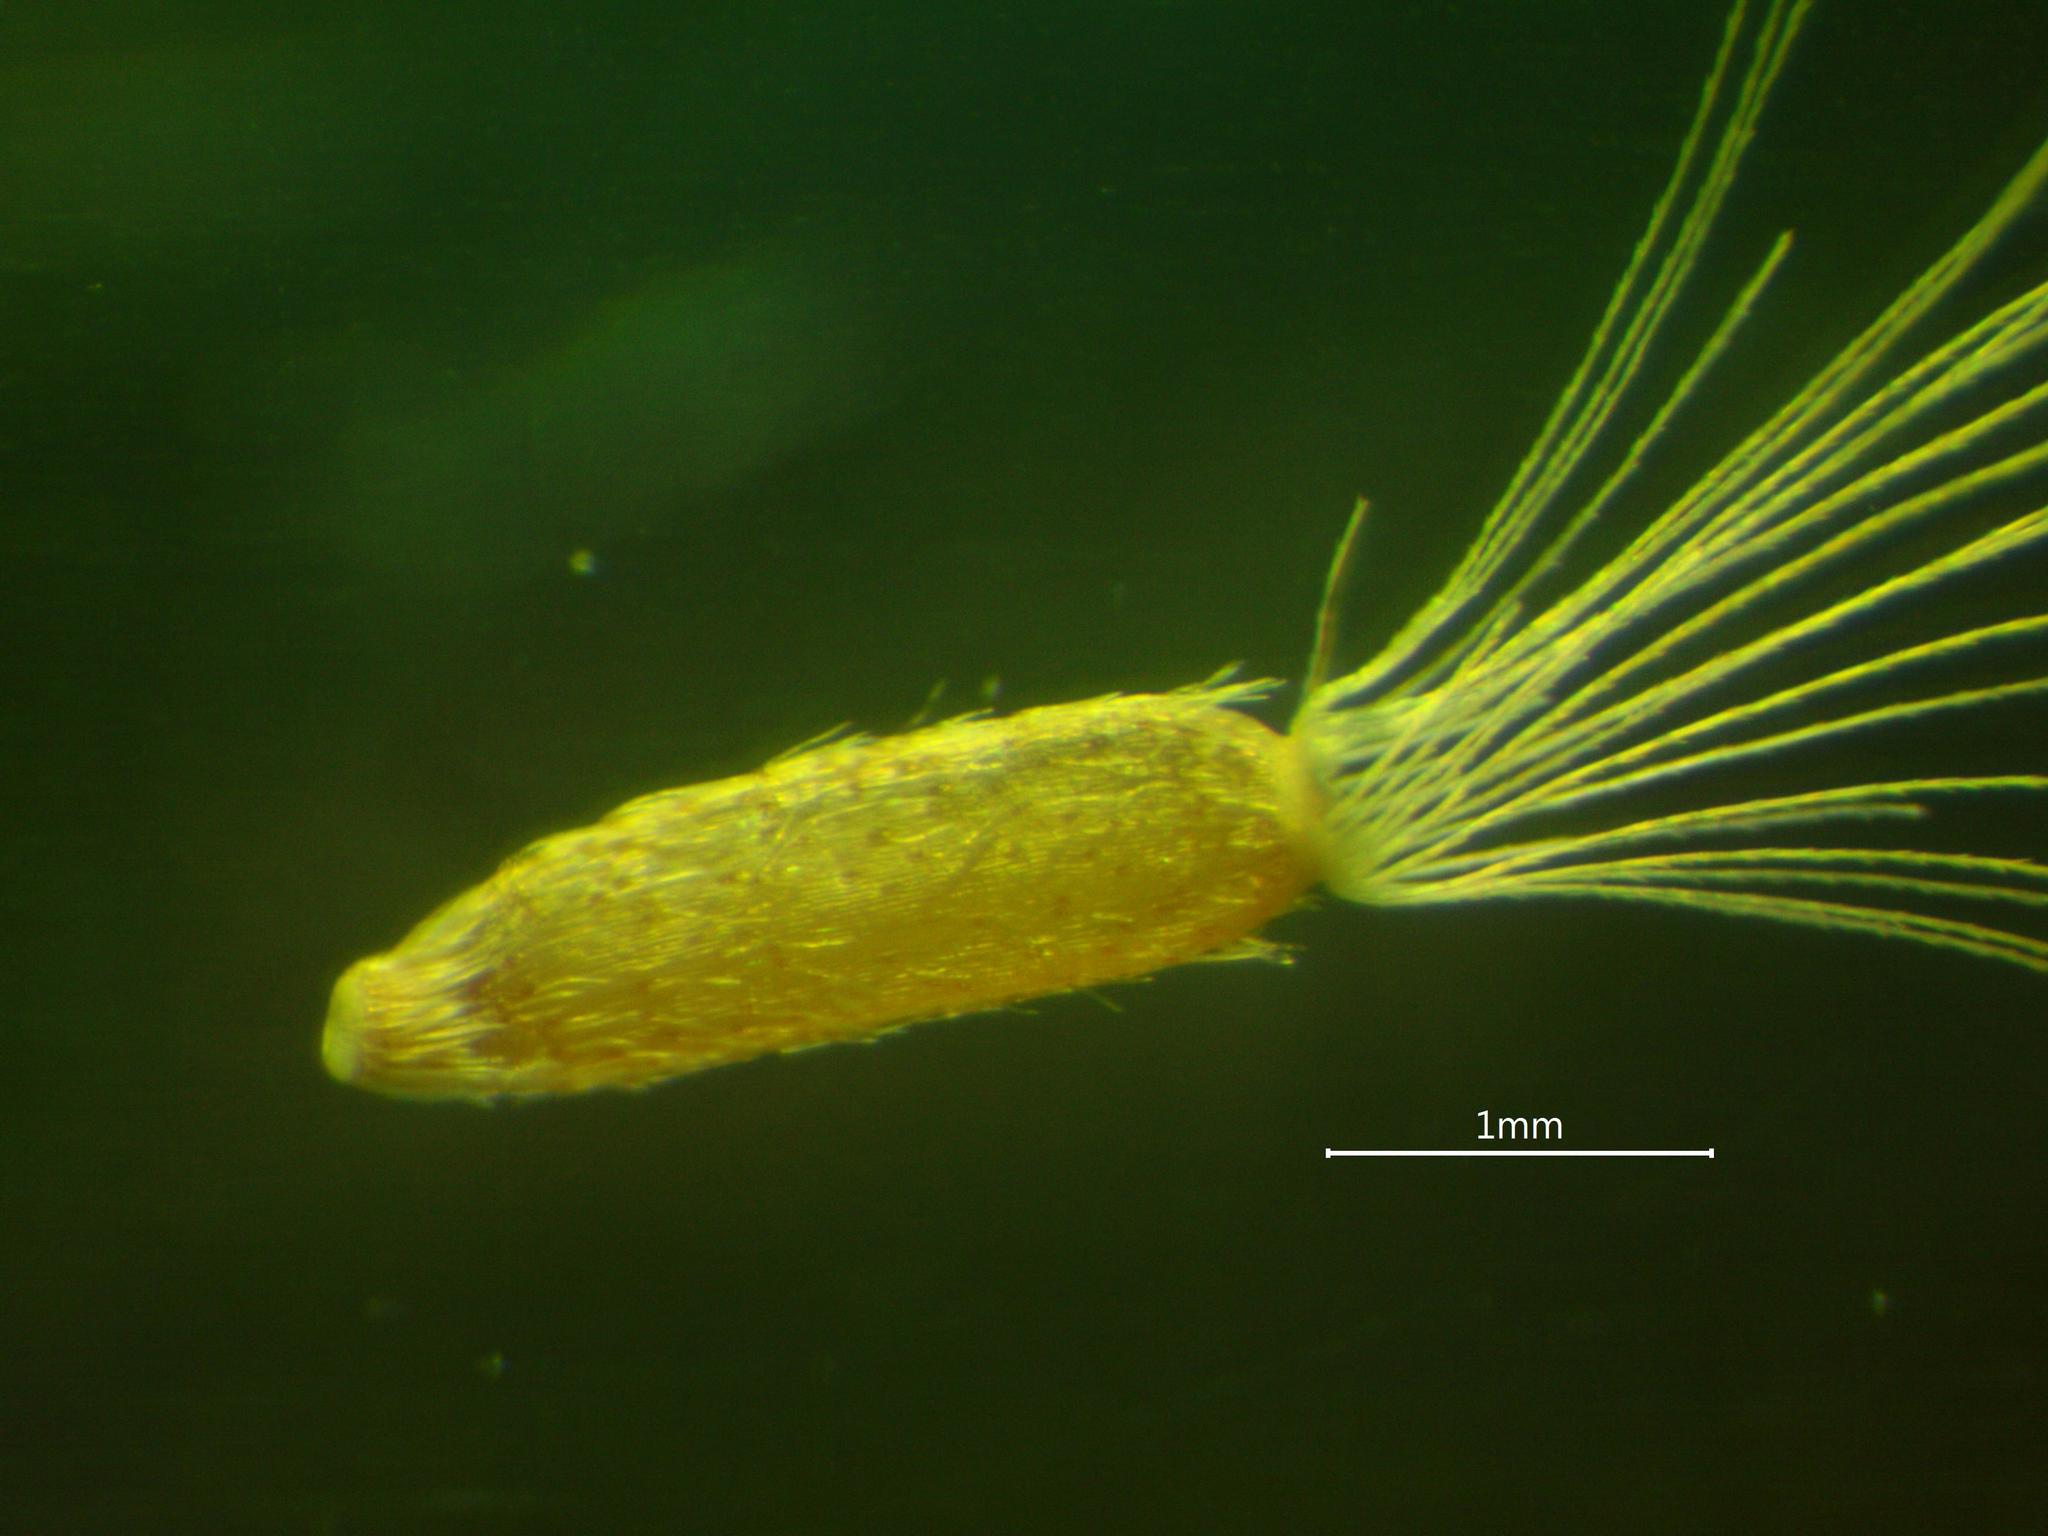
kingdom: Plantae
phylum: Tracheophyta
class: Magnoliopsida
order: Asterales
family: Asteraceae
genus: Erigeron
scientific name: Erigeron canadensis
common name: Canadian fleabane
